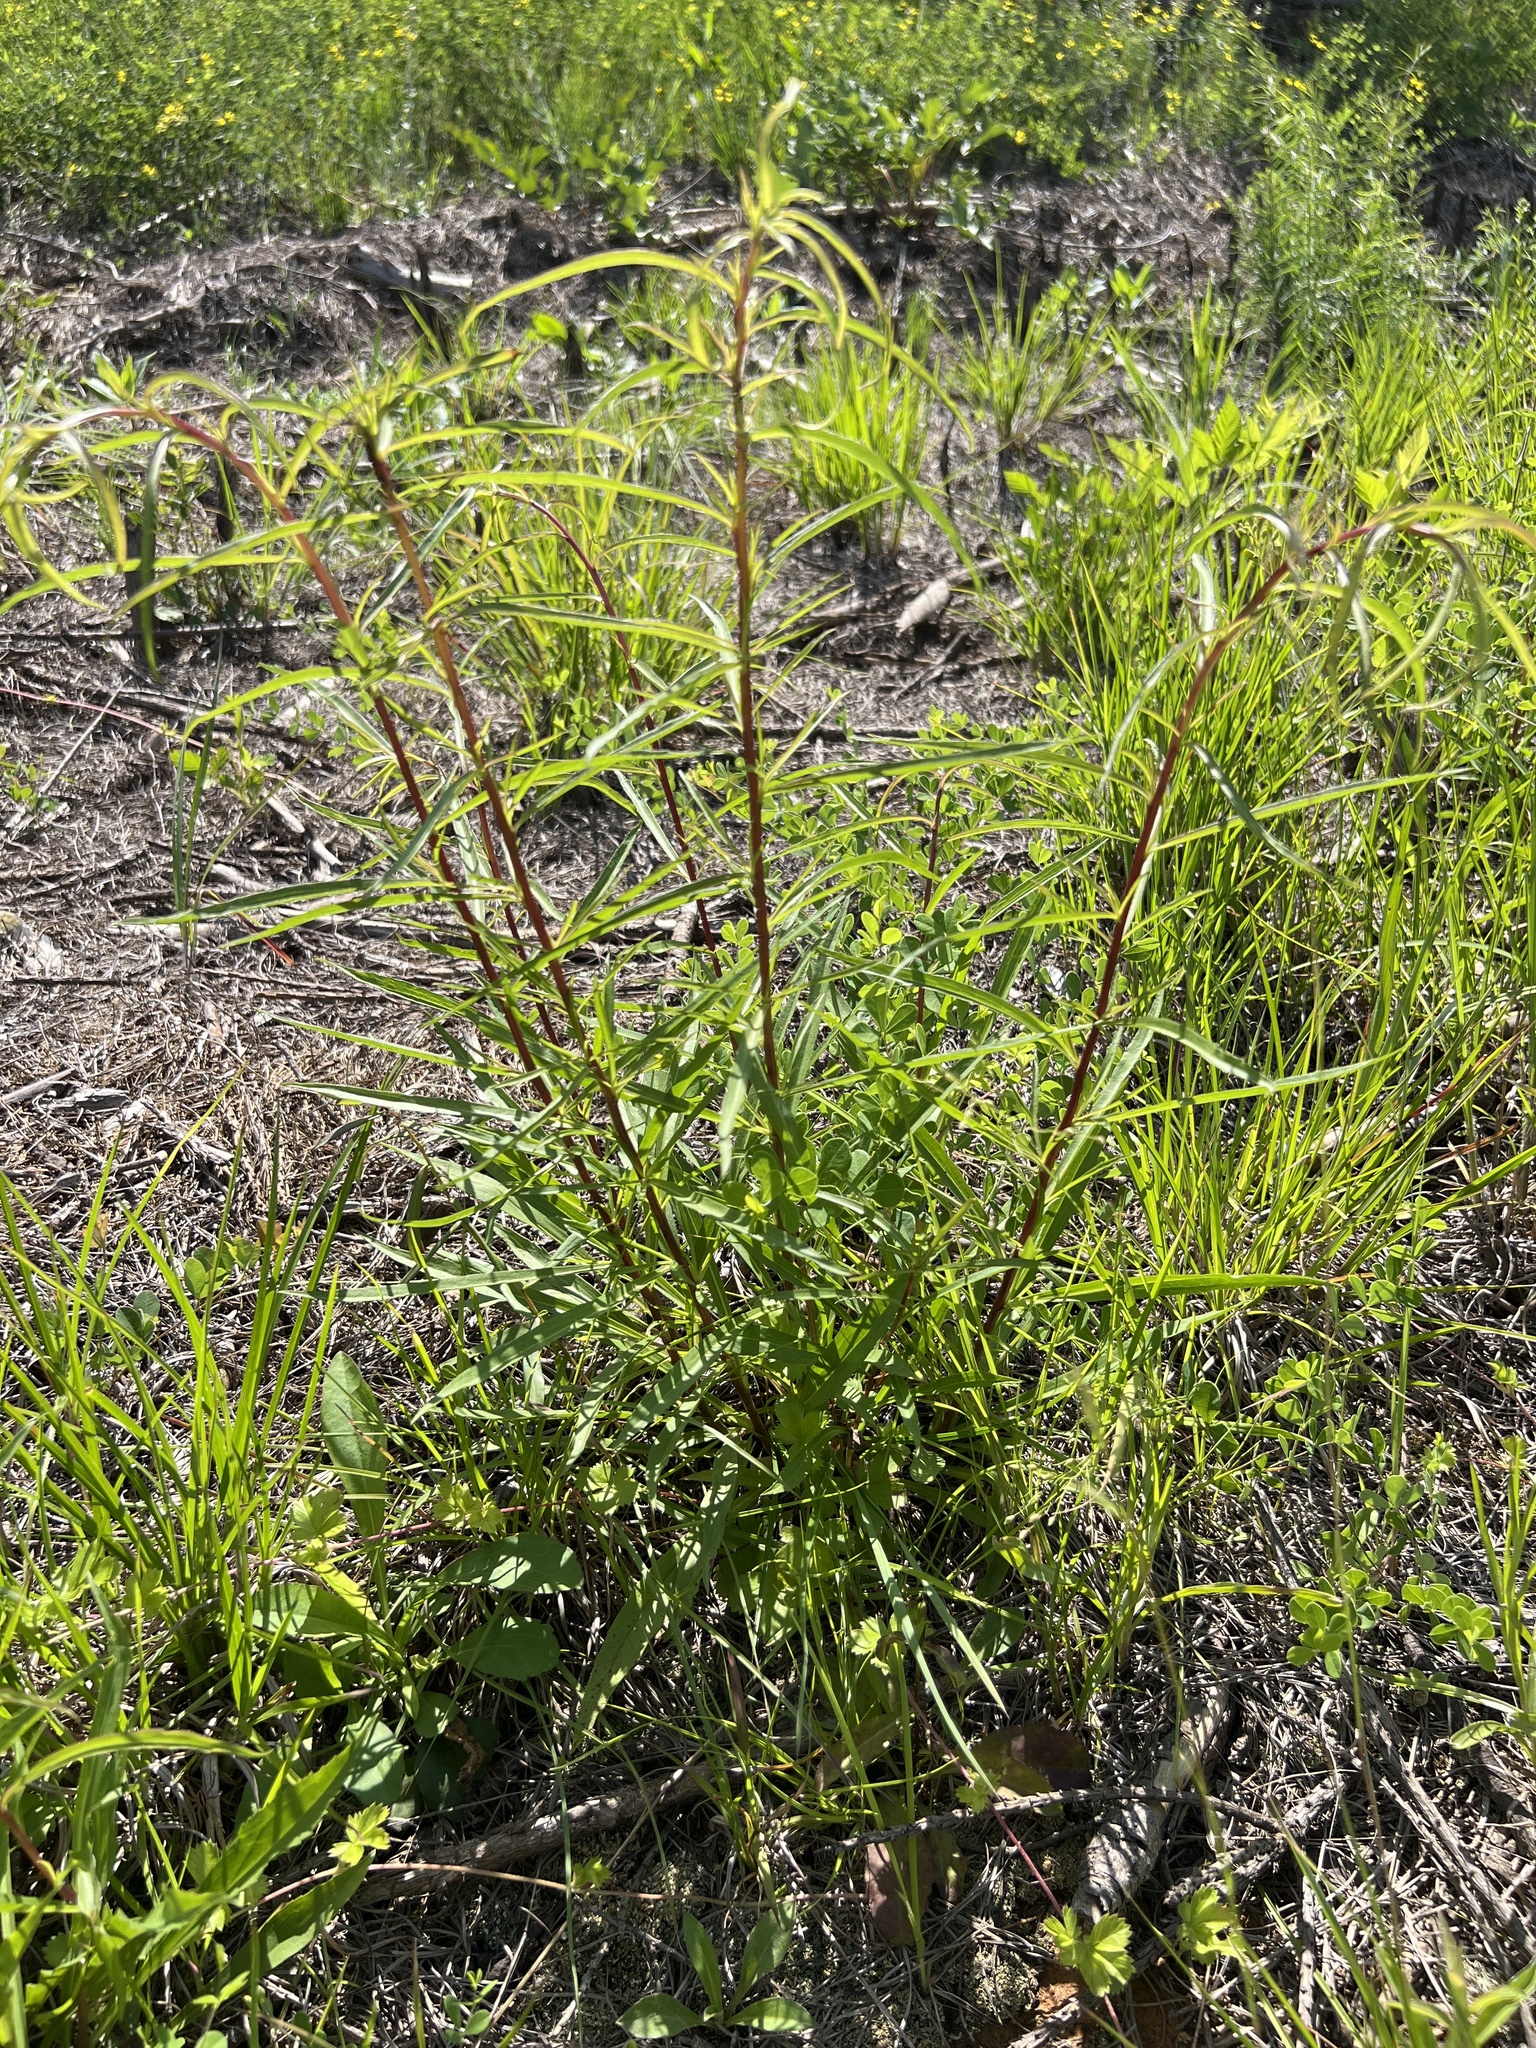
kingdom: Plantae
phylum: Tracheophyta
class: Magnoliopsida
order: Asterales
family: Asteraceae
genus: Solidago
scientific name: Solidago pinetorum
